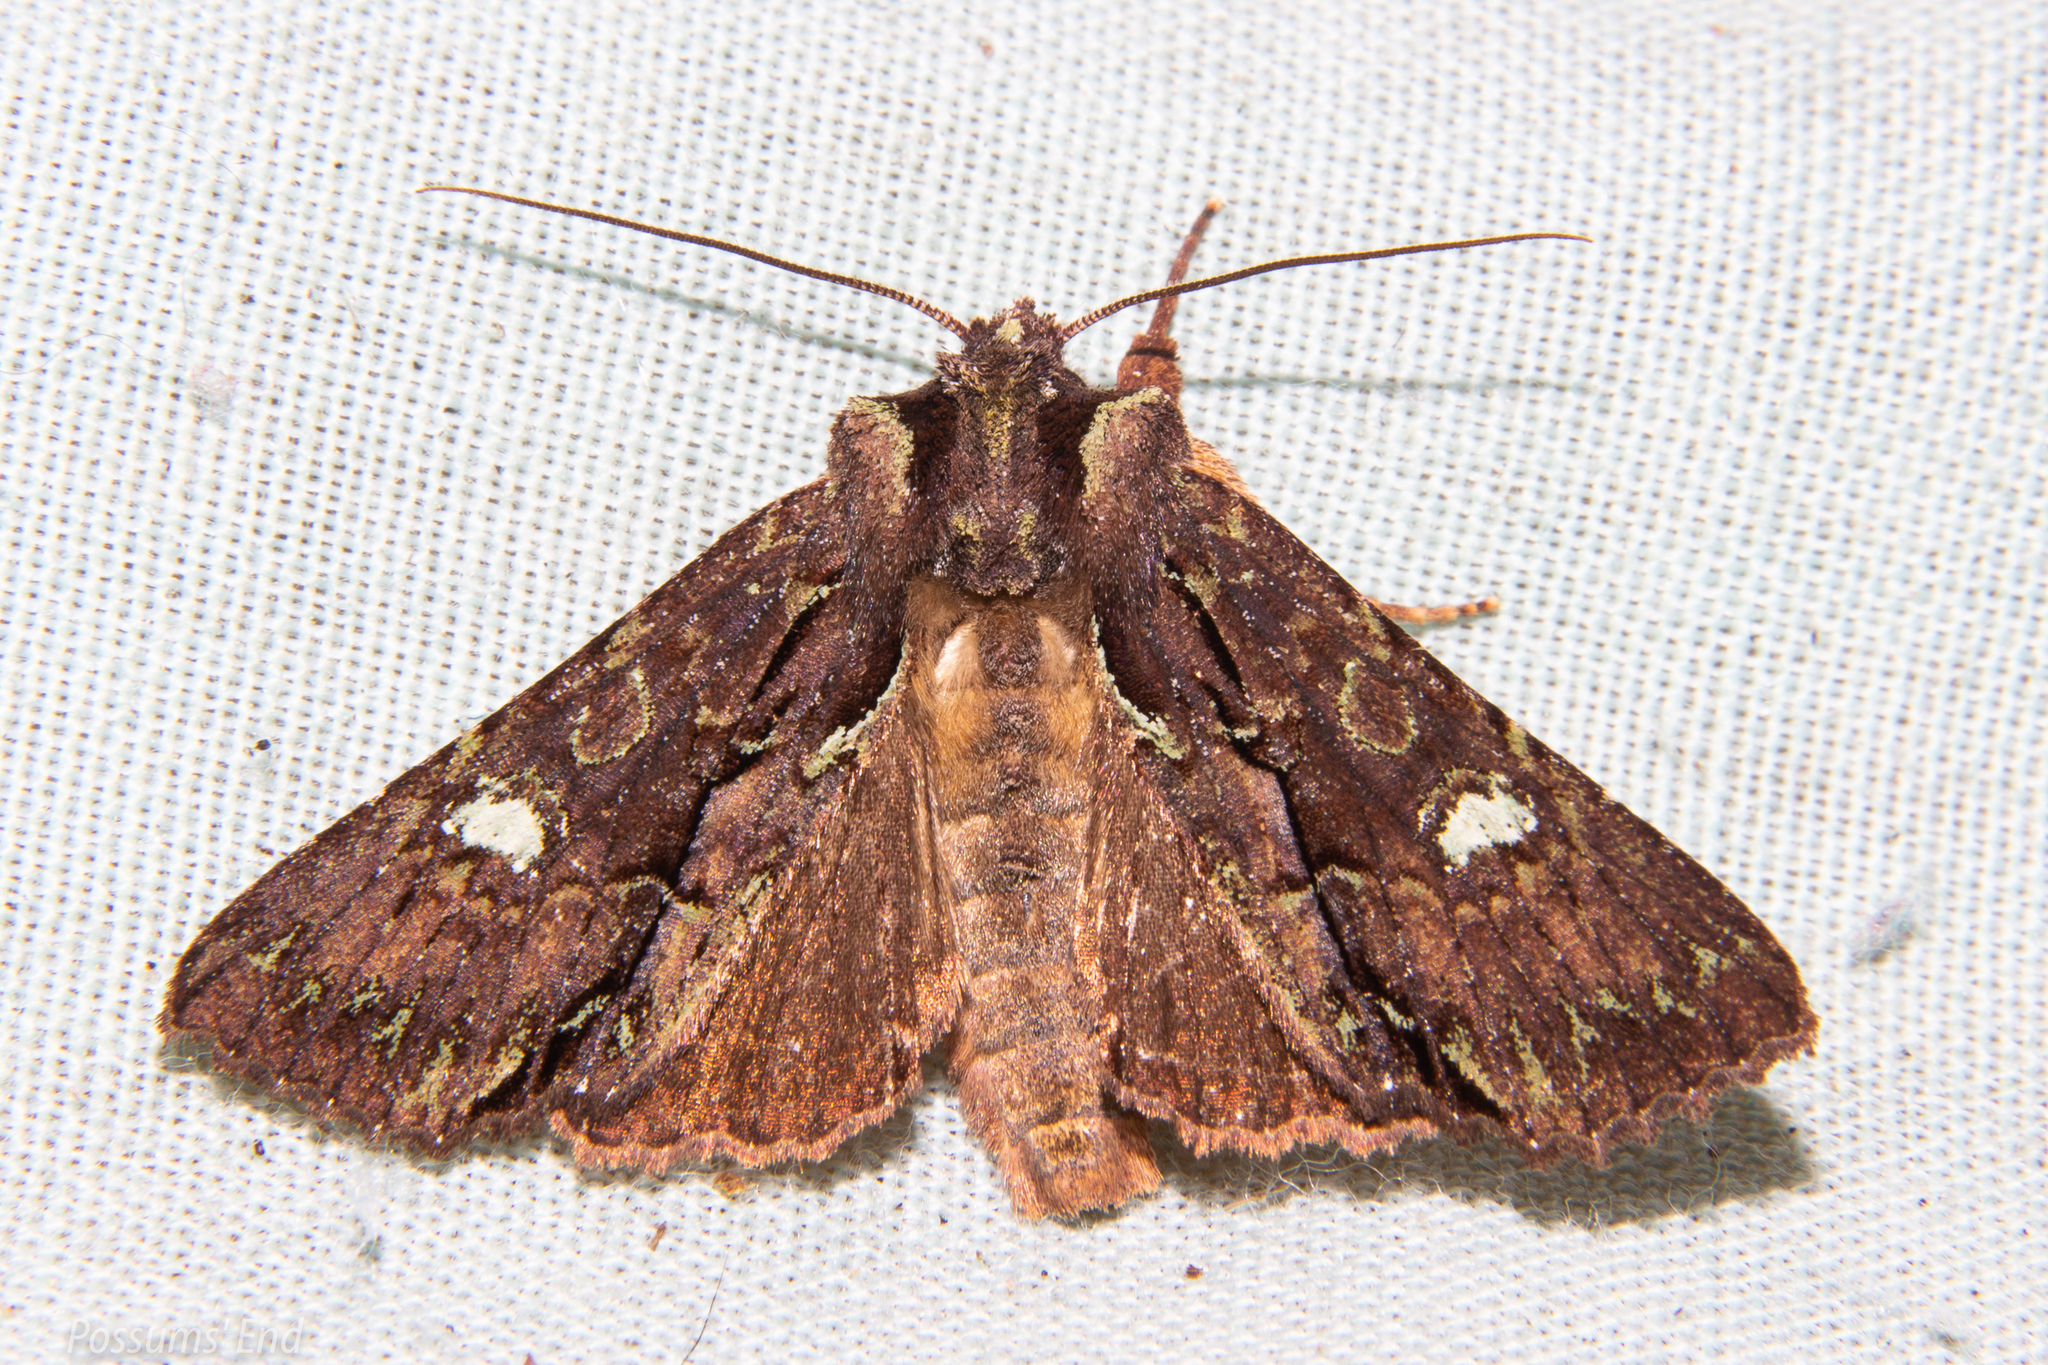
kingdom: Animalia
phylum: Arthropoda
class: Insecta
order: Lepidoptera
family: Noctuidae
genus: Meterana
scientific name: Meterana diatmeta
